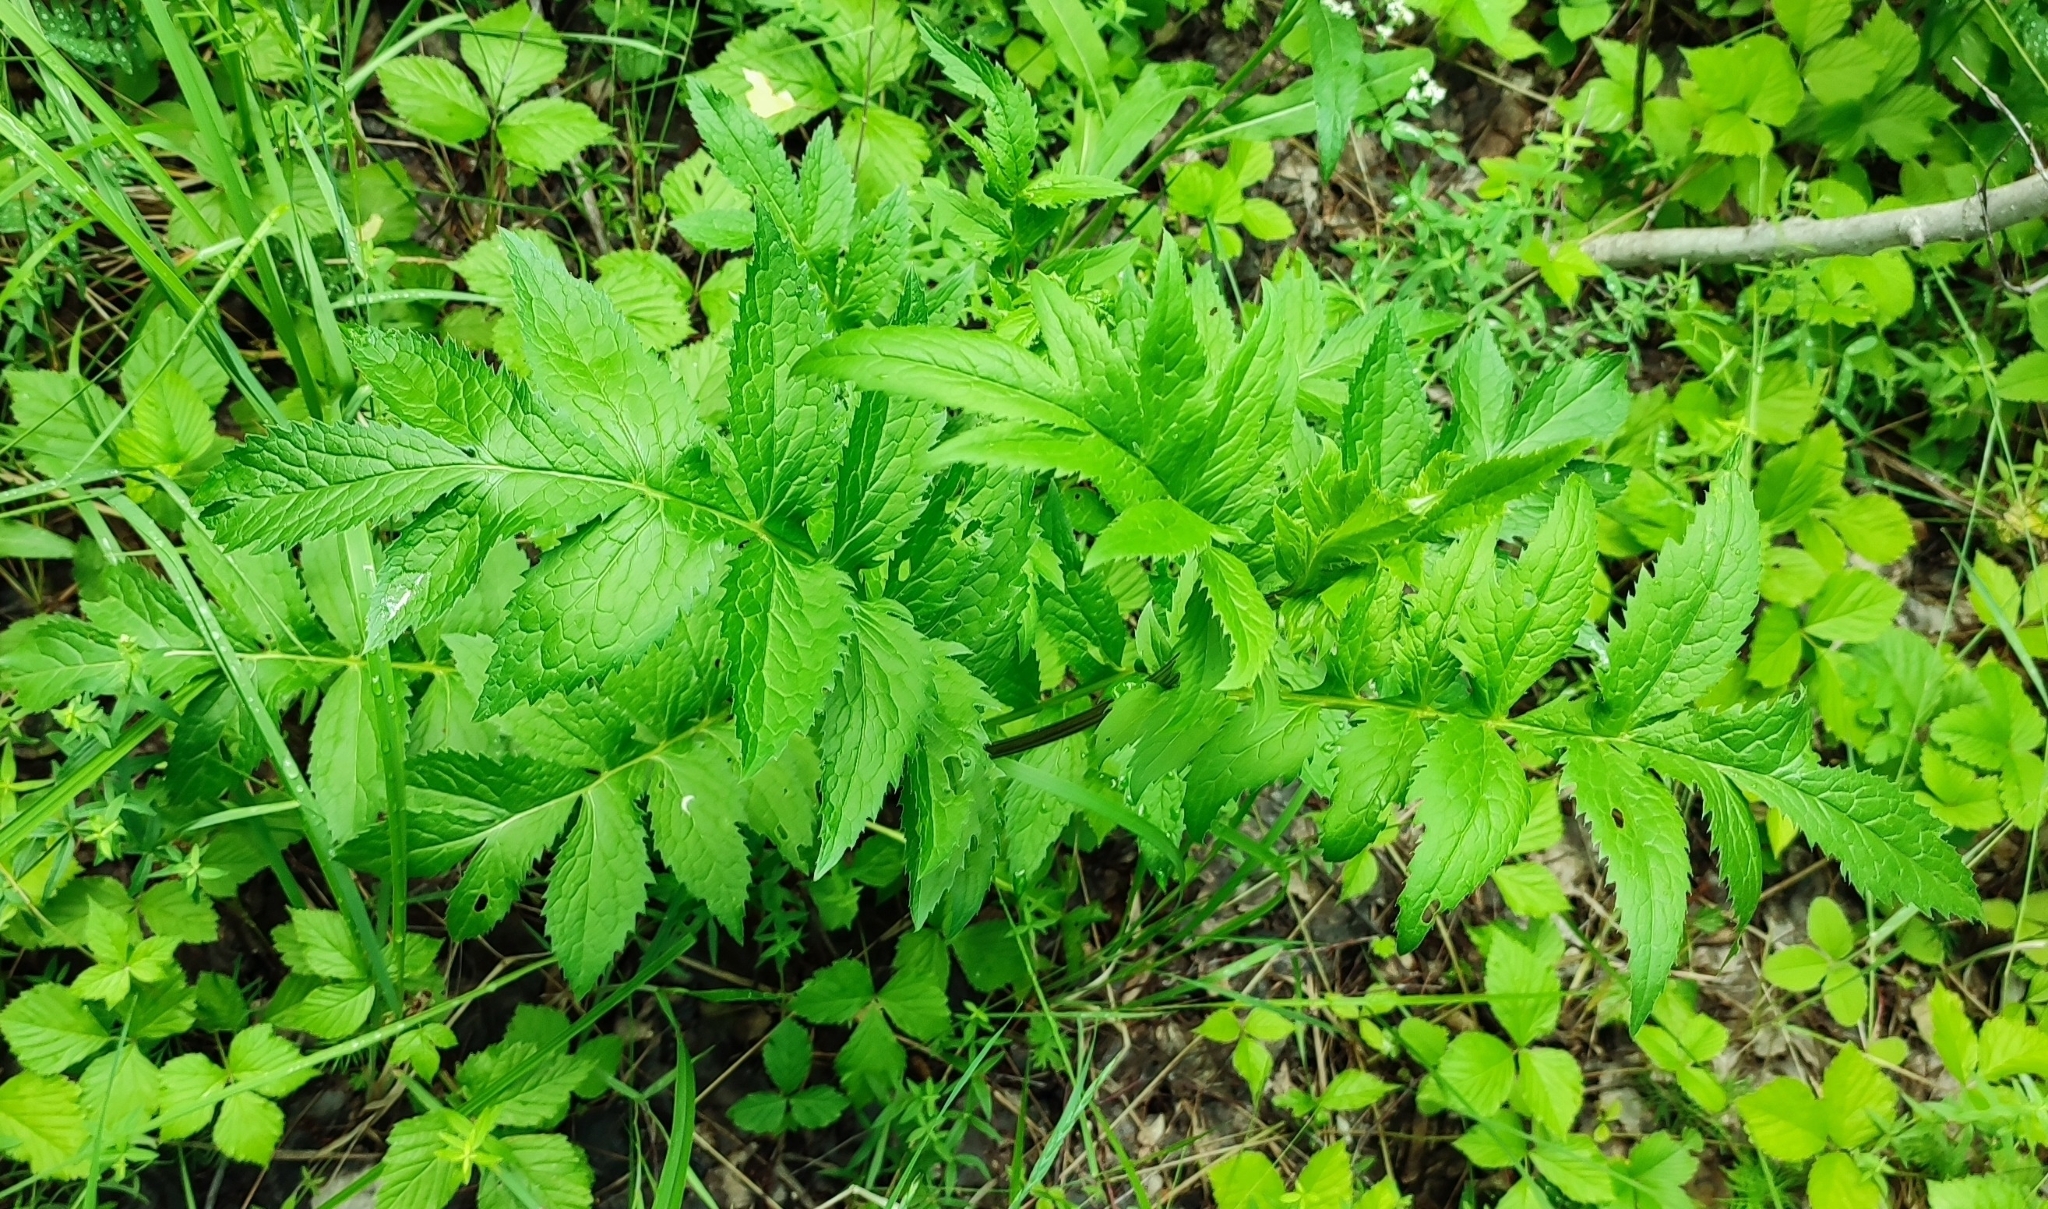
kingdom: Plantae
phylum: Tracheophyta
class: Magnoliopsida
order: Asterales
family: Asteraceae
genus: Serratula
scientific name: Serratula coronata
